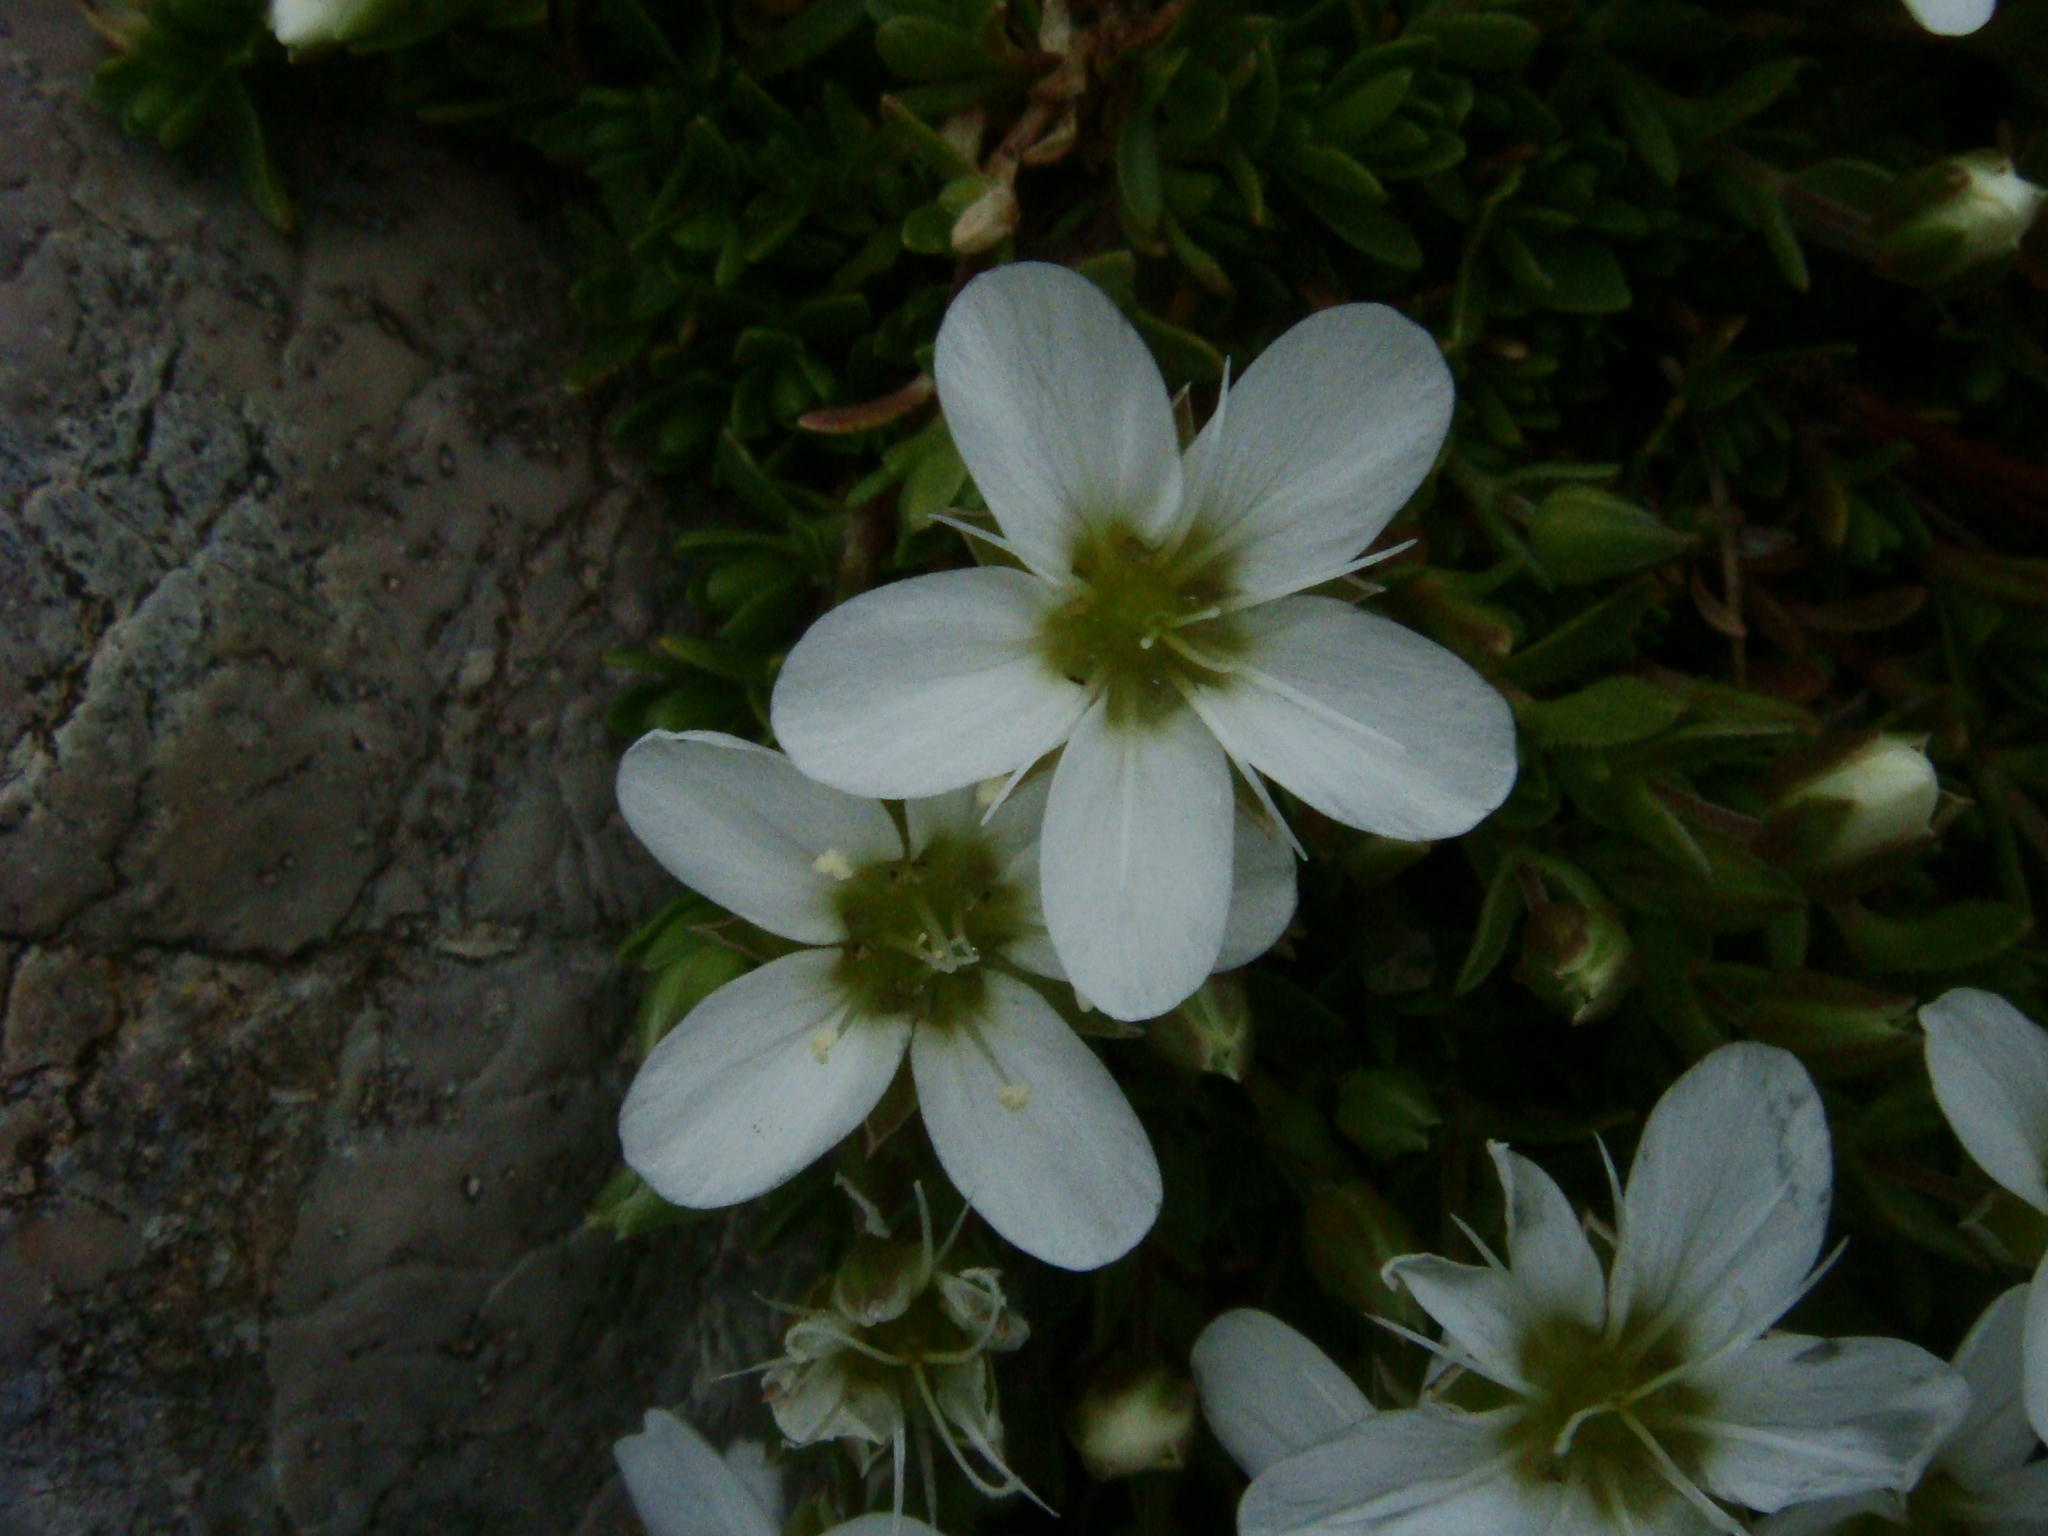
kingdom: Plantae
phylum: Tracheophyta
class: Magnoliopsida
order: Caryophyllales
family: Caryophyllaceae
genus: Arenaria
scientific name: Arenaria ciliata
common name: Fringed sandwort
